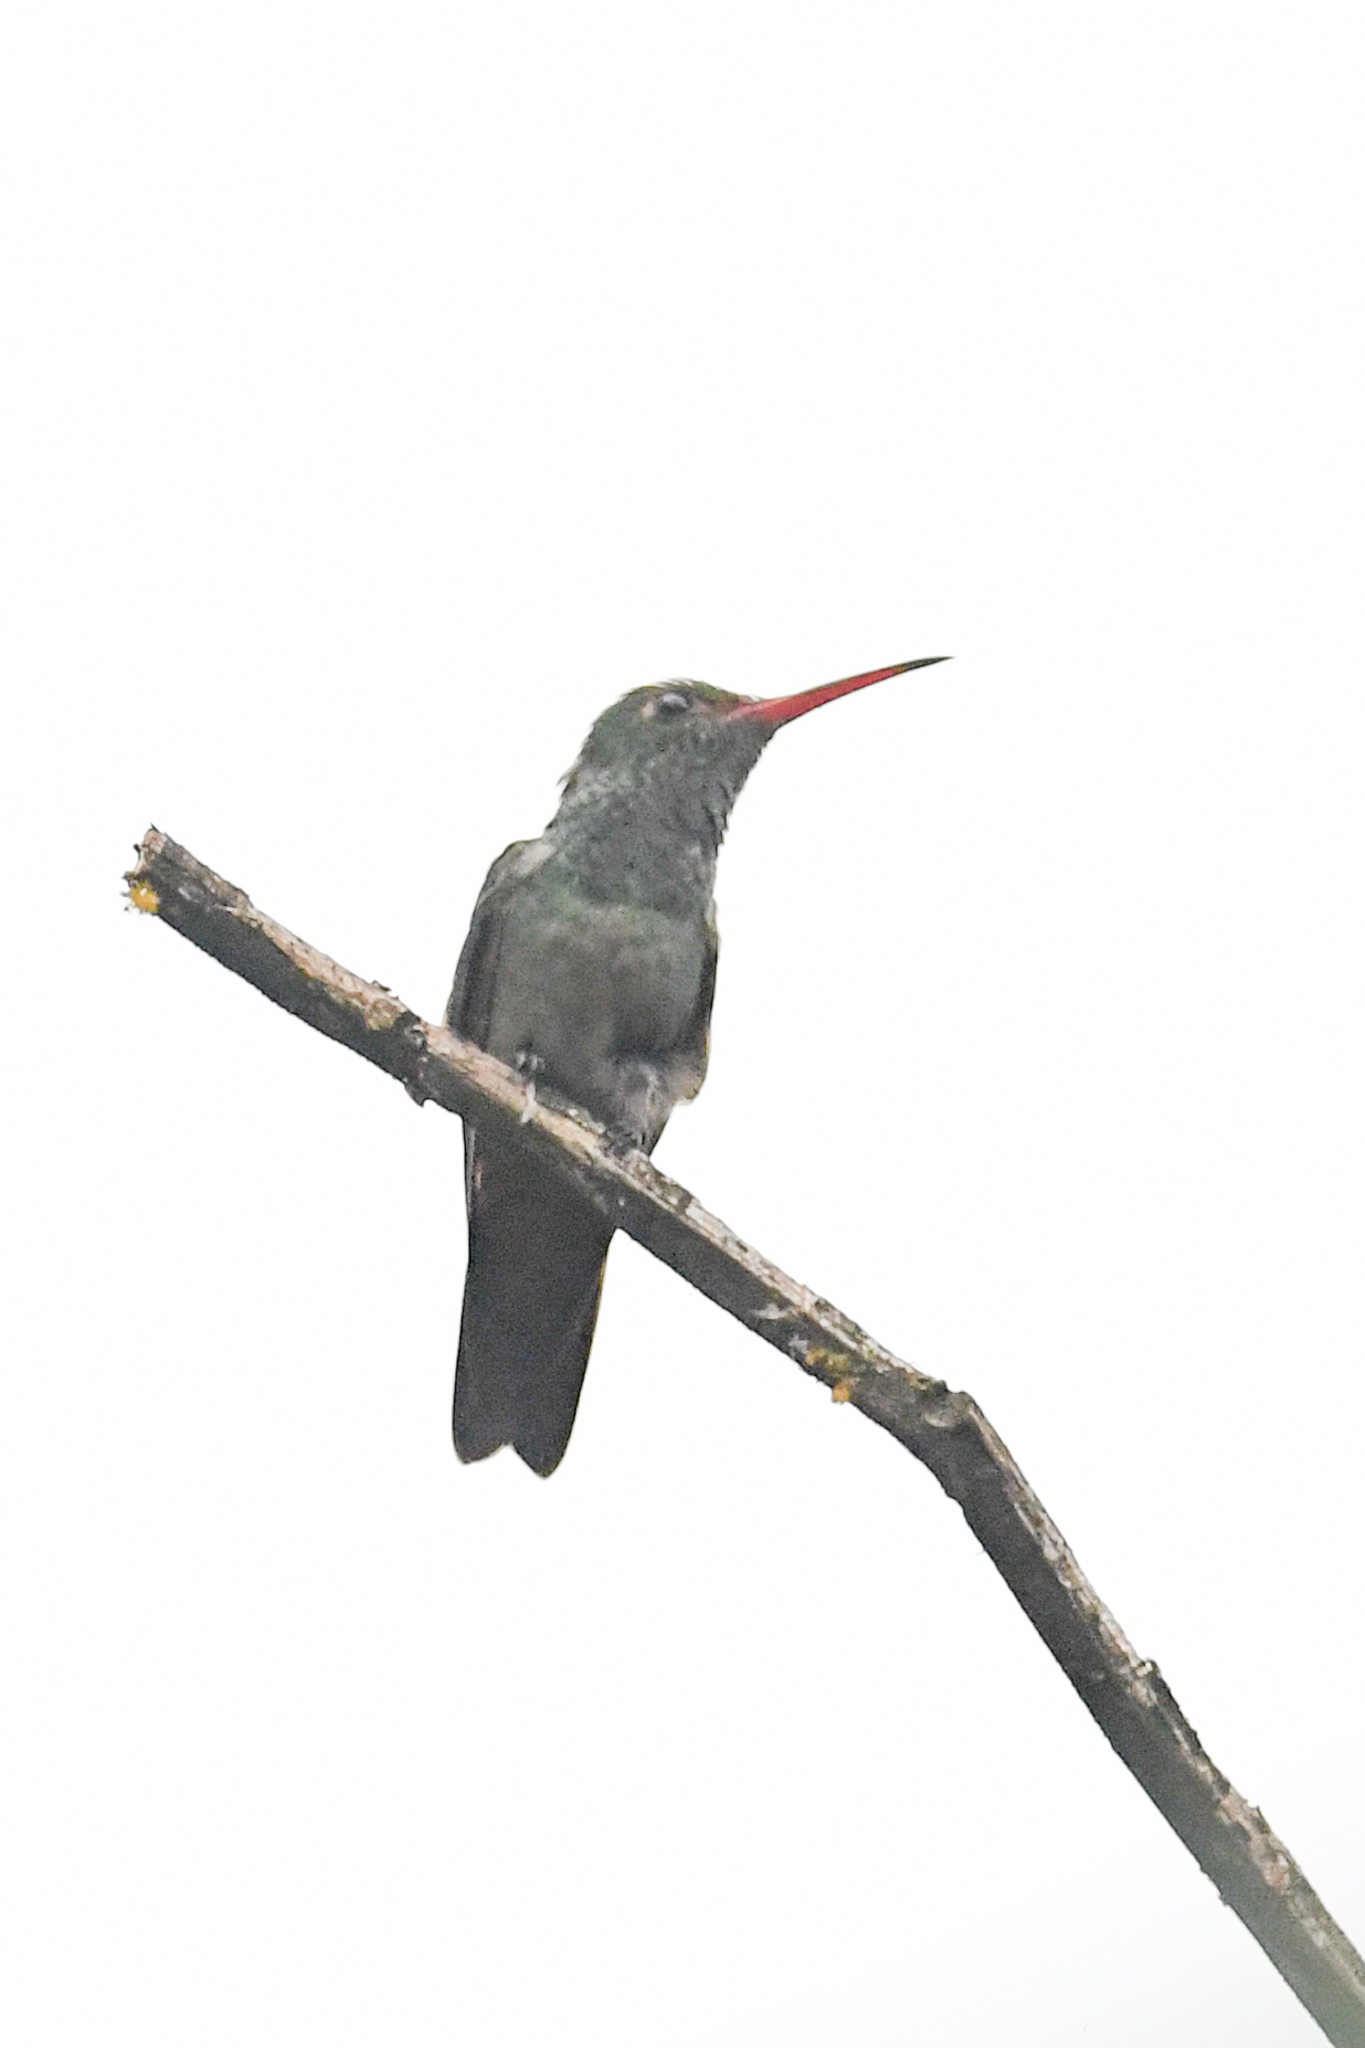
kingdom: Animalia
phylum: Chordata
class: Aves
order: Apodiformes
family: Trochilidae
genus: Amazilia
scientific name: Amazilia tzacatl
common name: Rufous-tailed hummingbird
